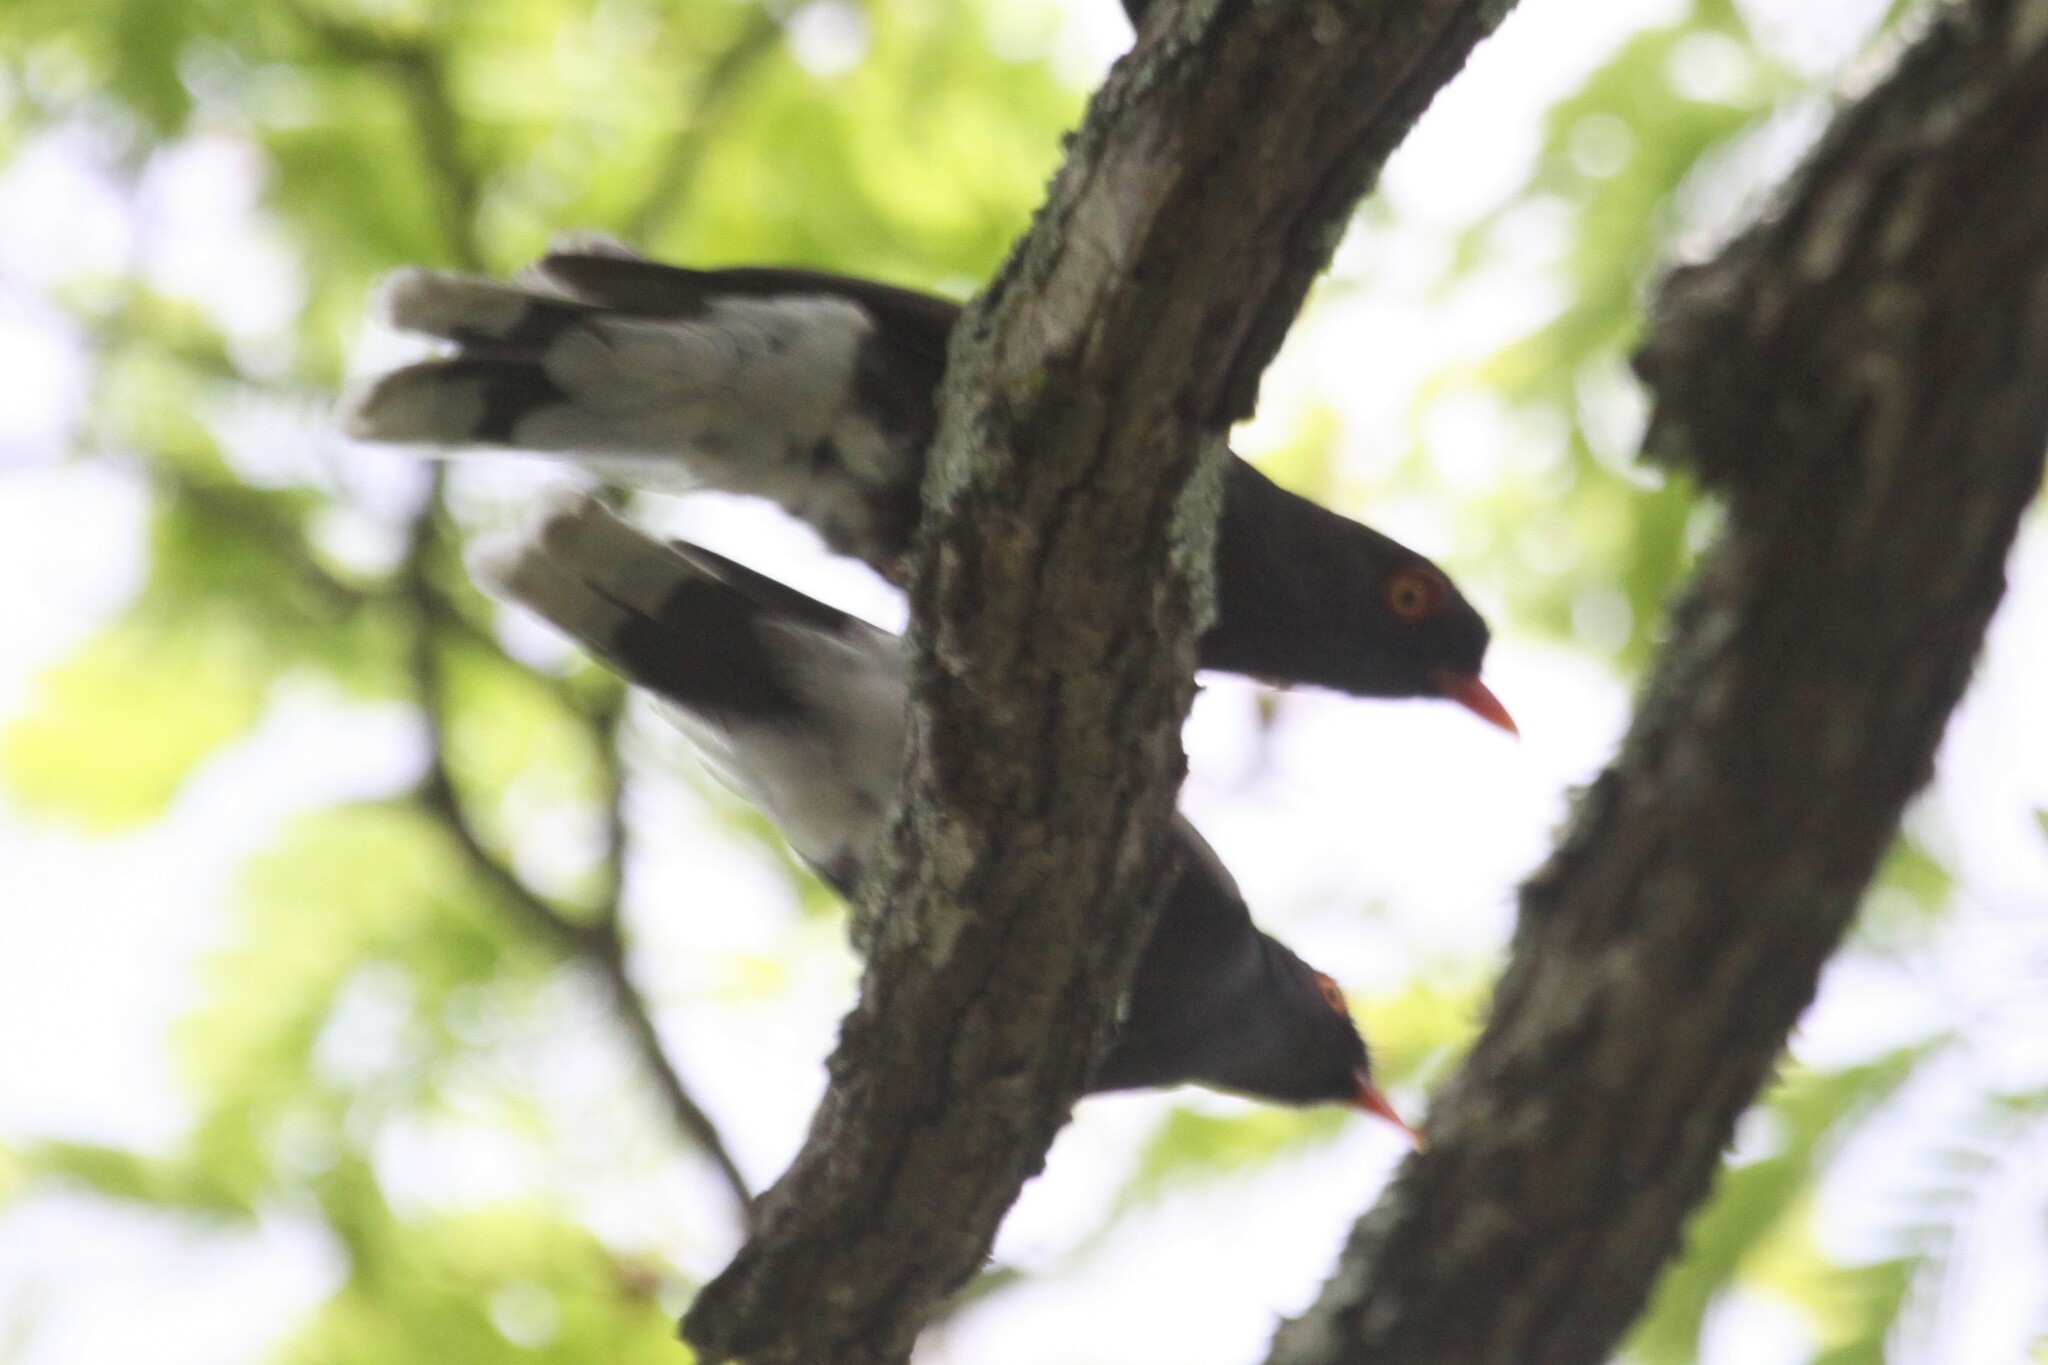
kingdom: Animalia
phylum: Chordata
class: Aves
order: Passeriformes
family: Prionopidae
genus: Prionops
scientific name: Prionops retzii
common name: Retz's helmetshrike
